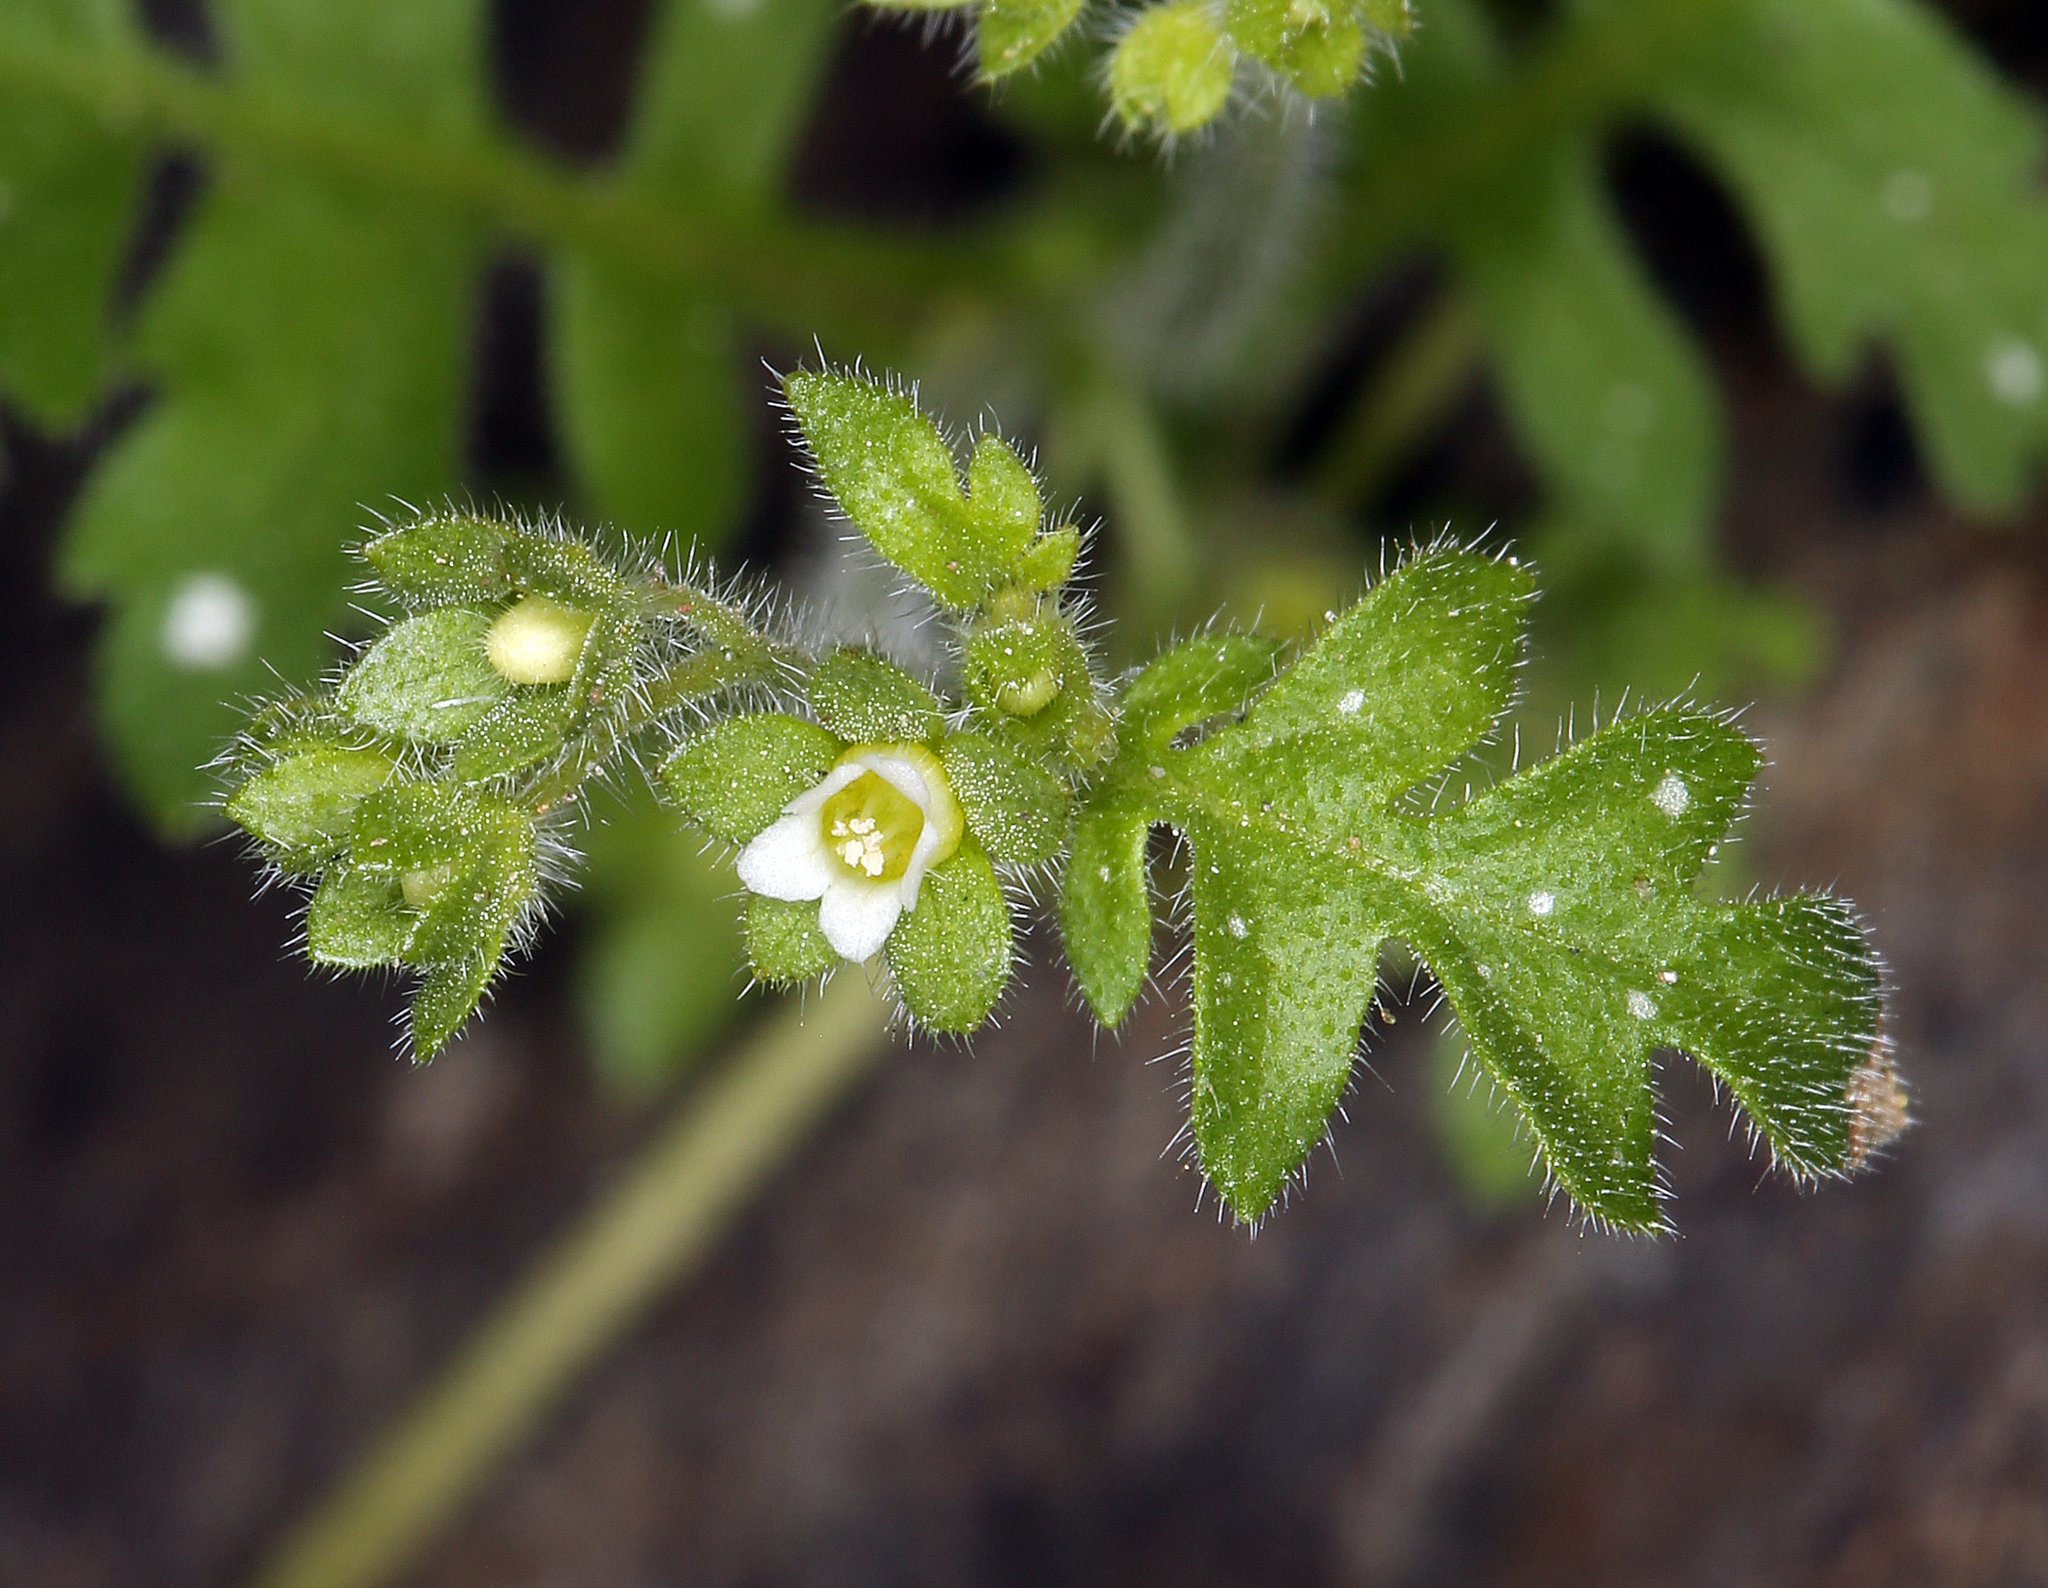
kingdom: Plantae
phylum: Tracheophyta
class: Magnoliopsida
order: Boraginales
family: Hydrophyllaceae
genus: Eucrypta
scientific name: Eucrypta chrysanthemifolia
